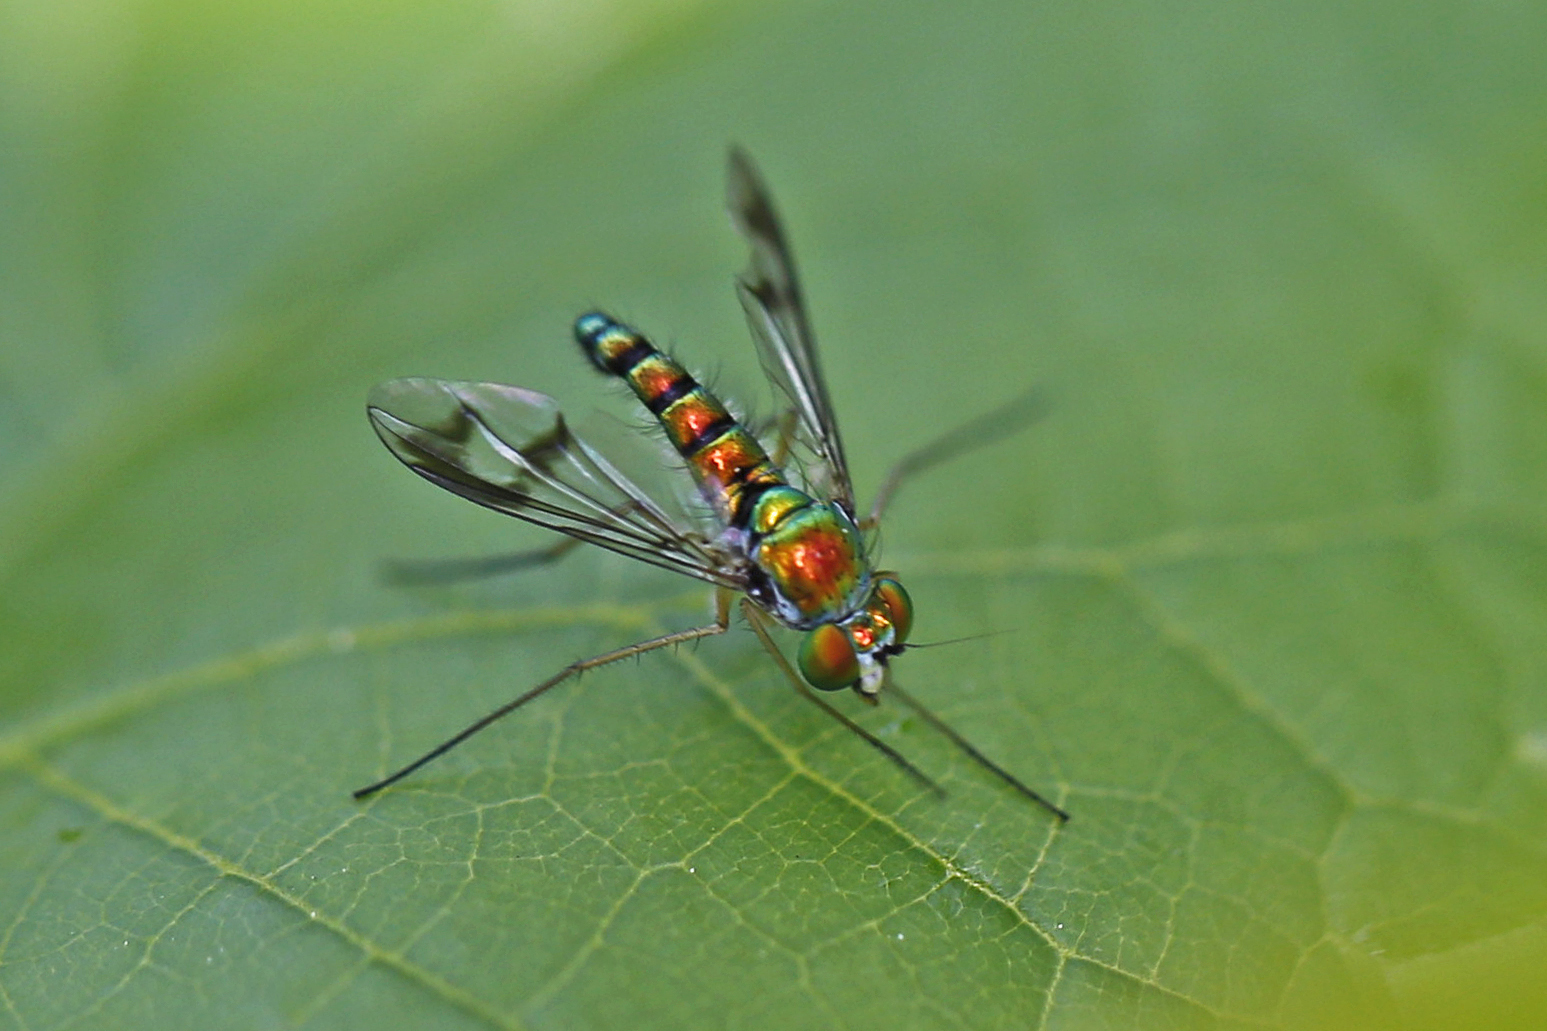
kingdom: Animalia
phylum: Arthropoda
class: Insecta
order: Diptera
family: Dolichopodidae
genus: Condylostylus
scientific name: Condylostylus
